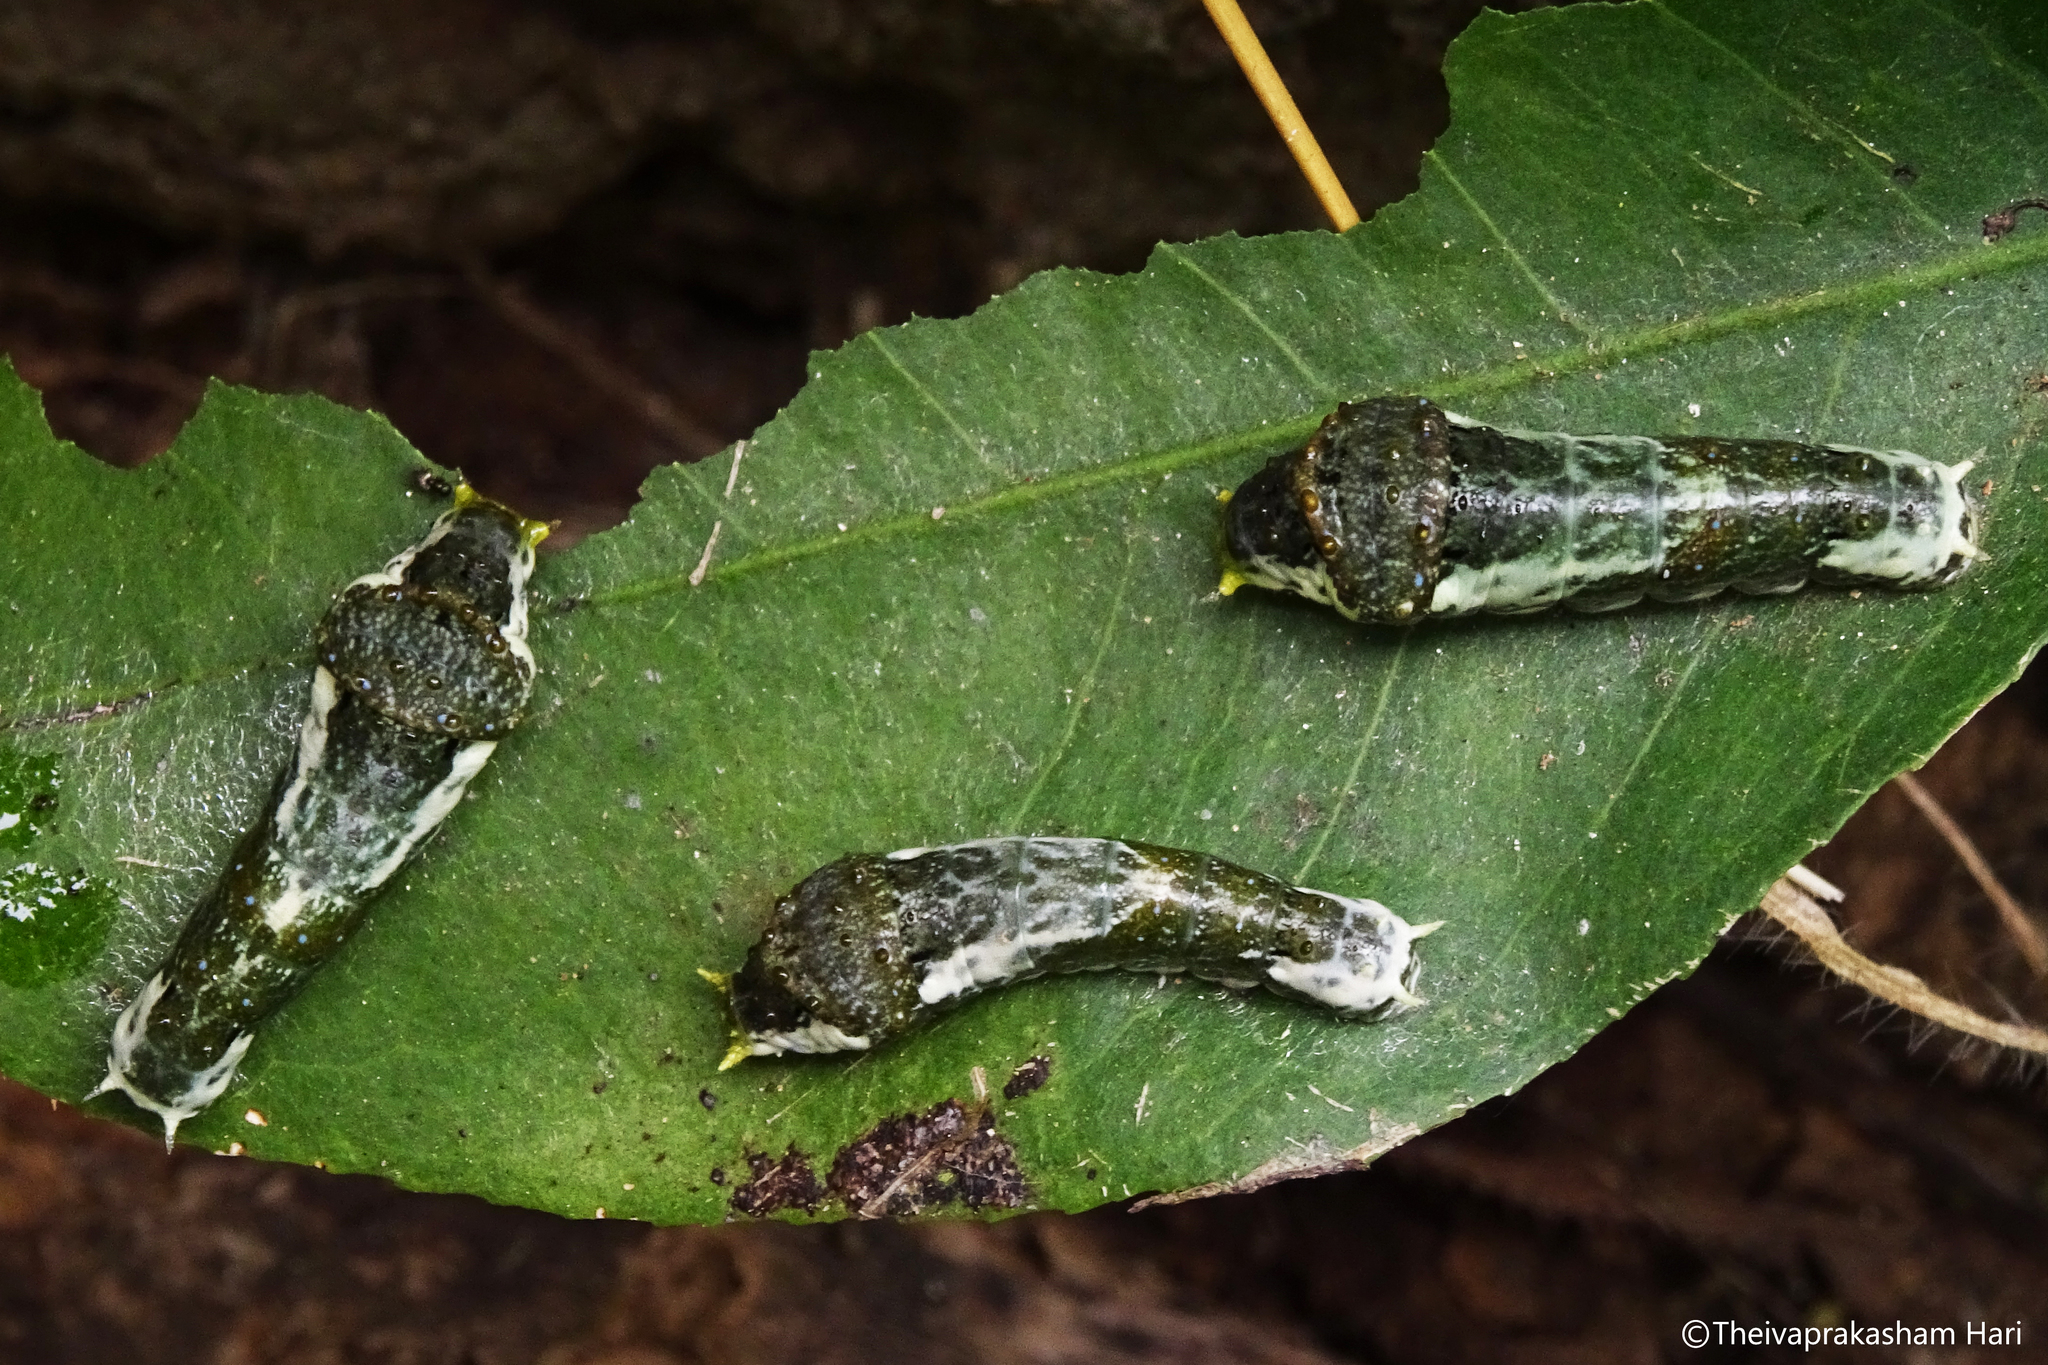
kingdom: Animalia
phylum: Arthropoda
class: Insecta
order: Lepidoptera
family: Papilionidae
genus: Papilio
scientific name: Papilio memnon
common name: Great mormon
